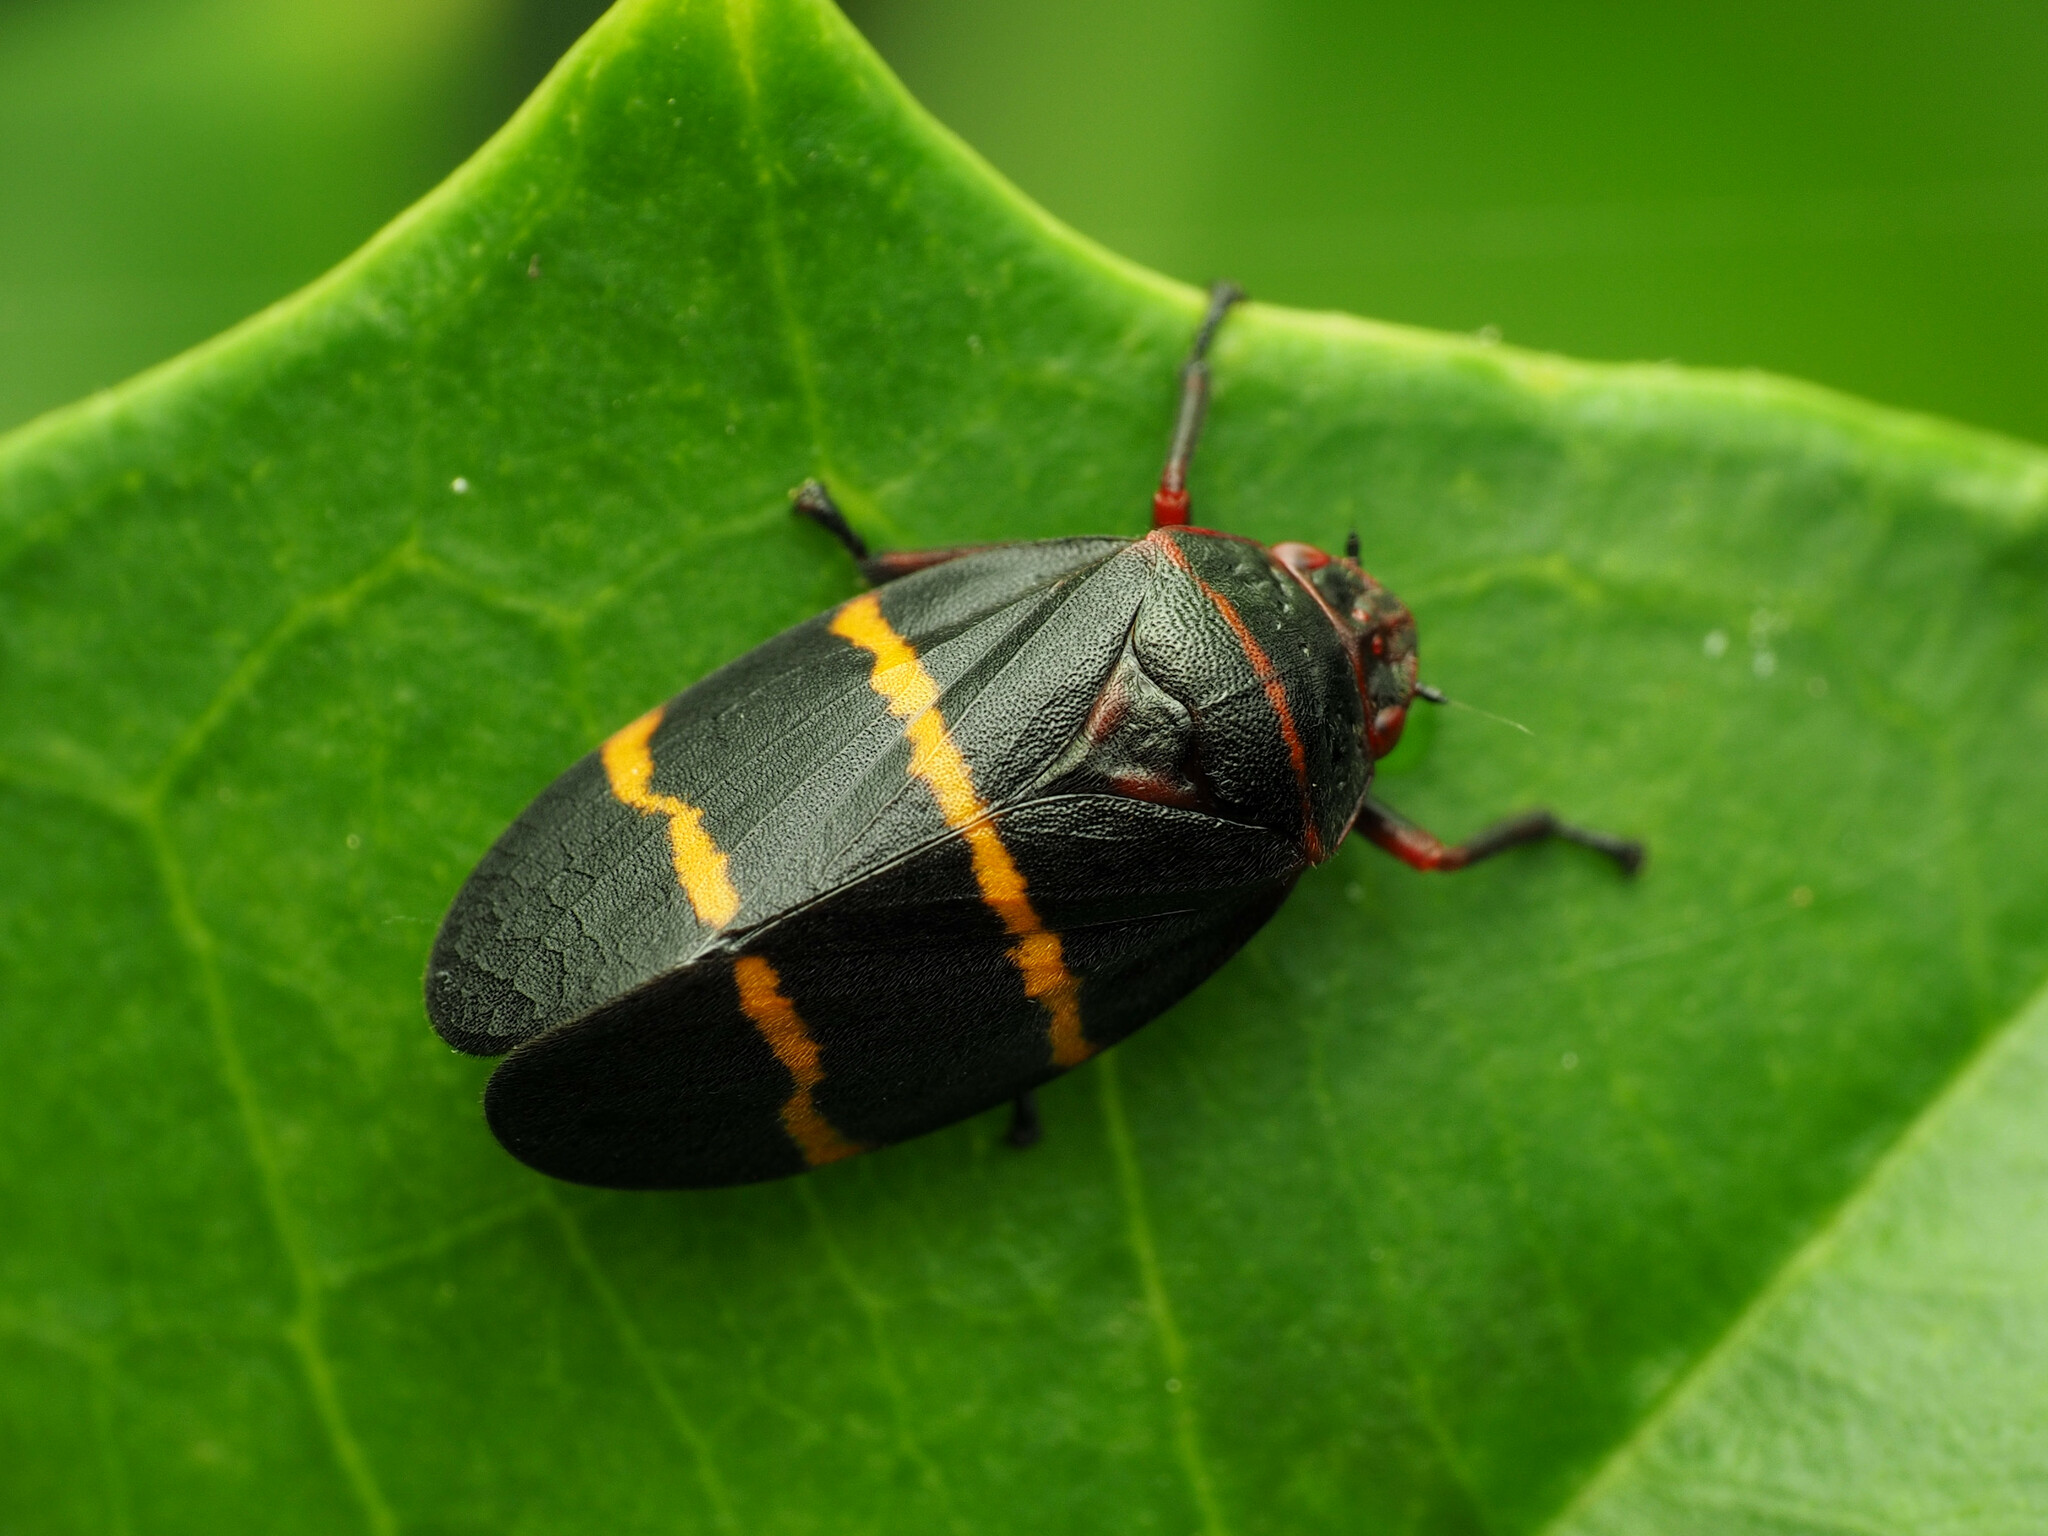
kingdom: Animalia
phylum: Arthropoda
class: Insecta
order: Hemiptera
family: Cercopidae
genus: Prosapia
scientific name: Prosapia bicincta
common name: Twolined spittlebug
